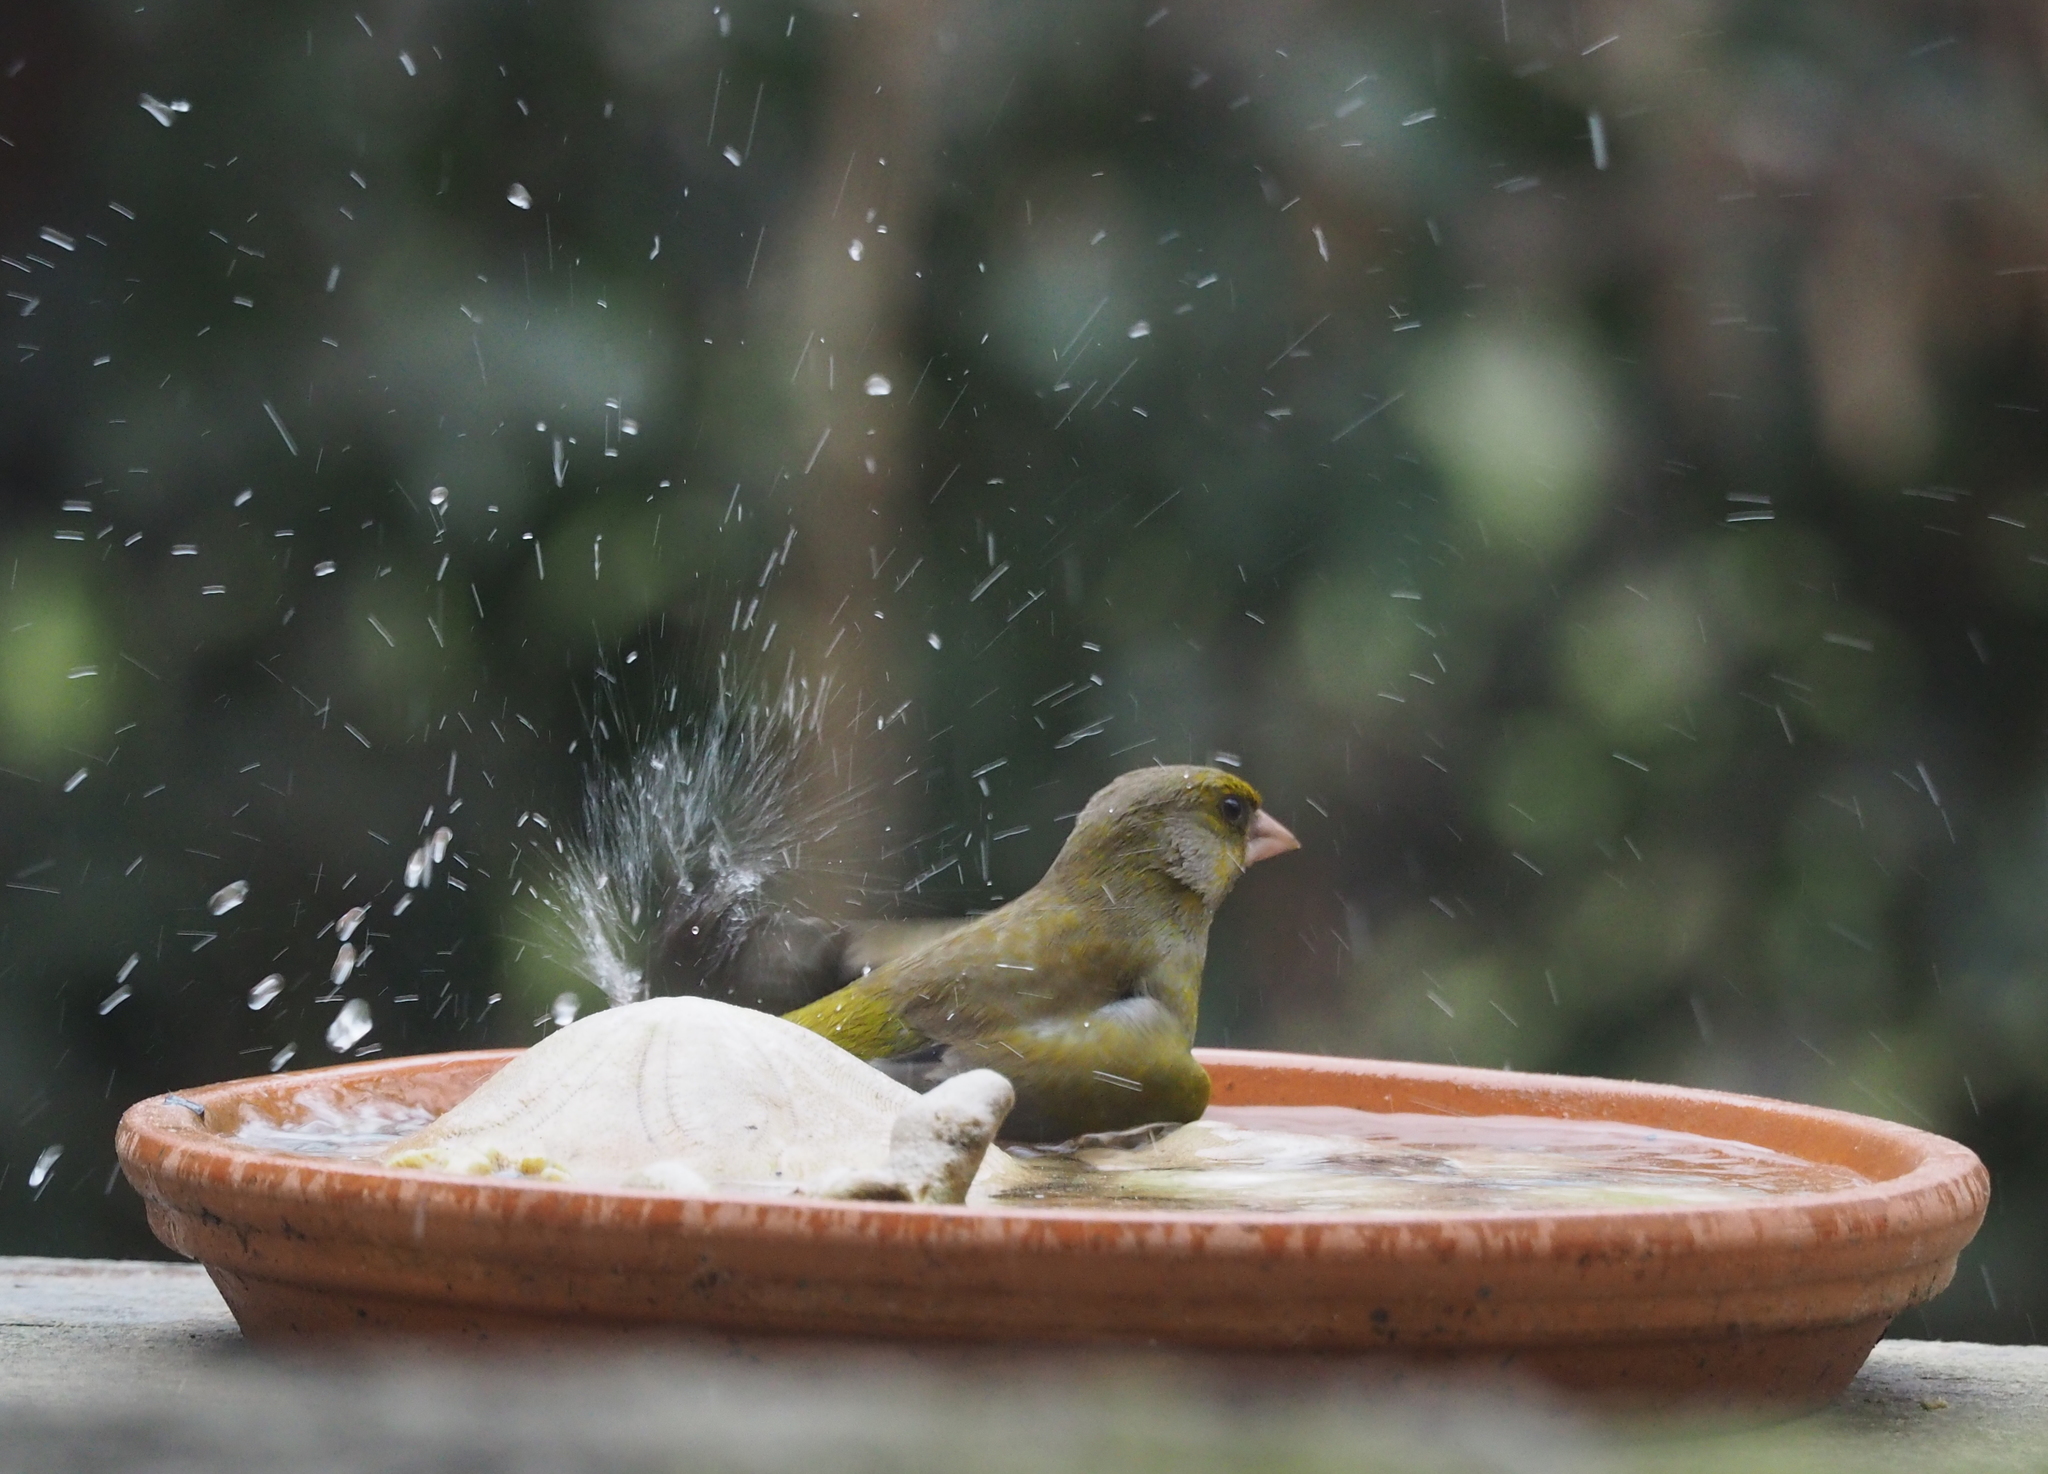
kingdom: Plantae
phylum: Tracheophyta
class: Liliopsida
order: Poales
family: Poaceae
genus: Chloris
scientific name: Chloris chloris
